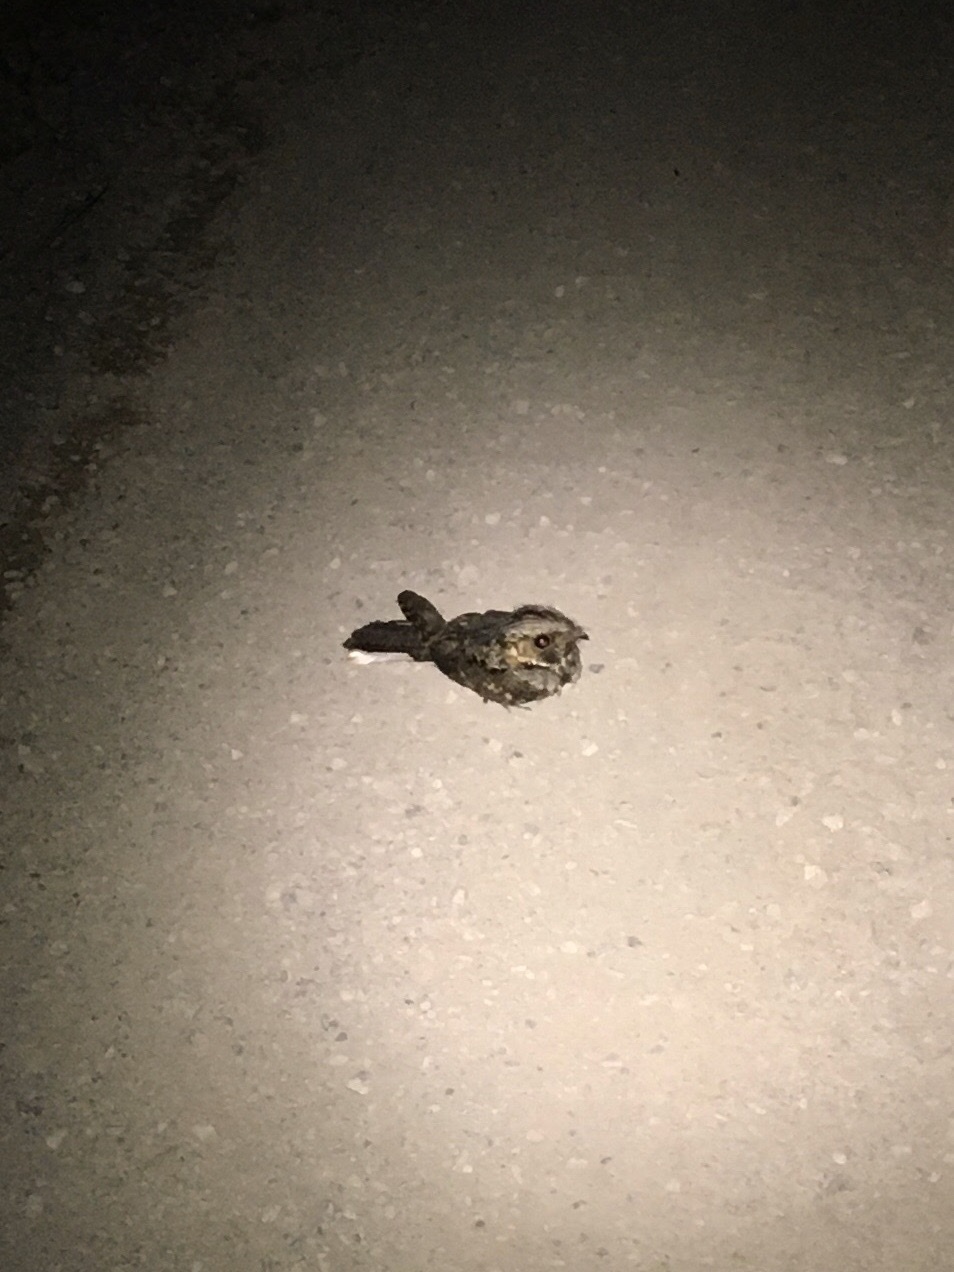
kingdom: Animalia
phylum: Chordata
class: Aves
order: Caprimulgiformes
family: Caprimulgidae
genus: Antrostomus
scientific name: Antrostomus vociferus
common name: Eastern whip-poor-will
